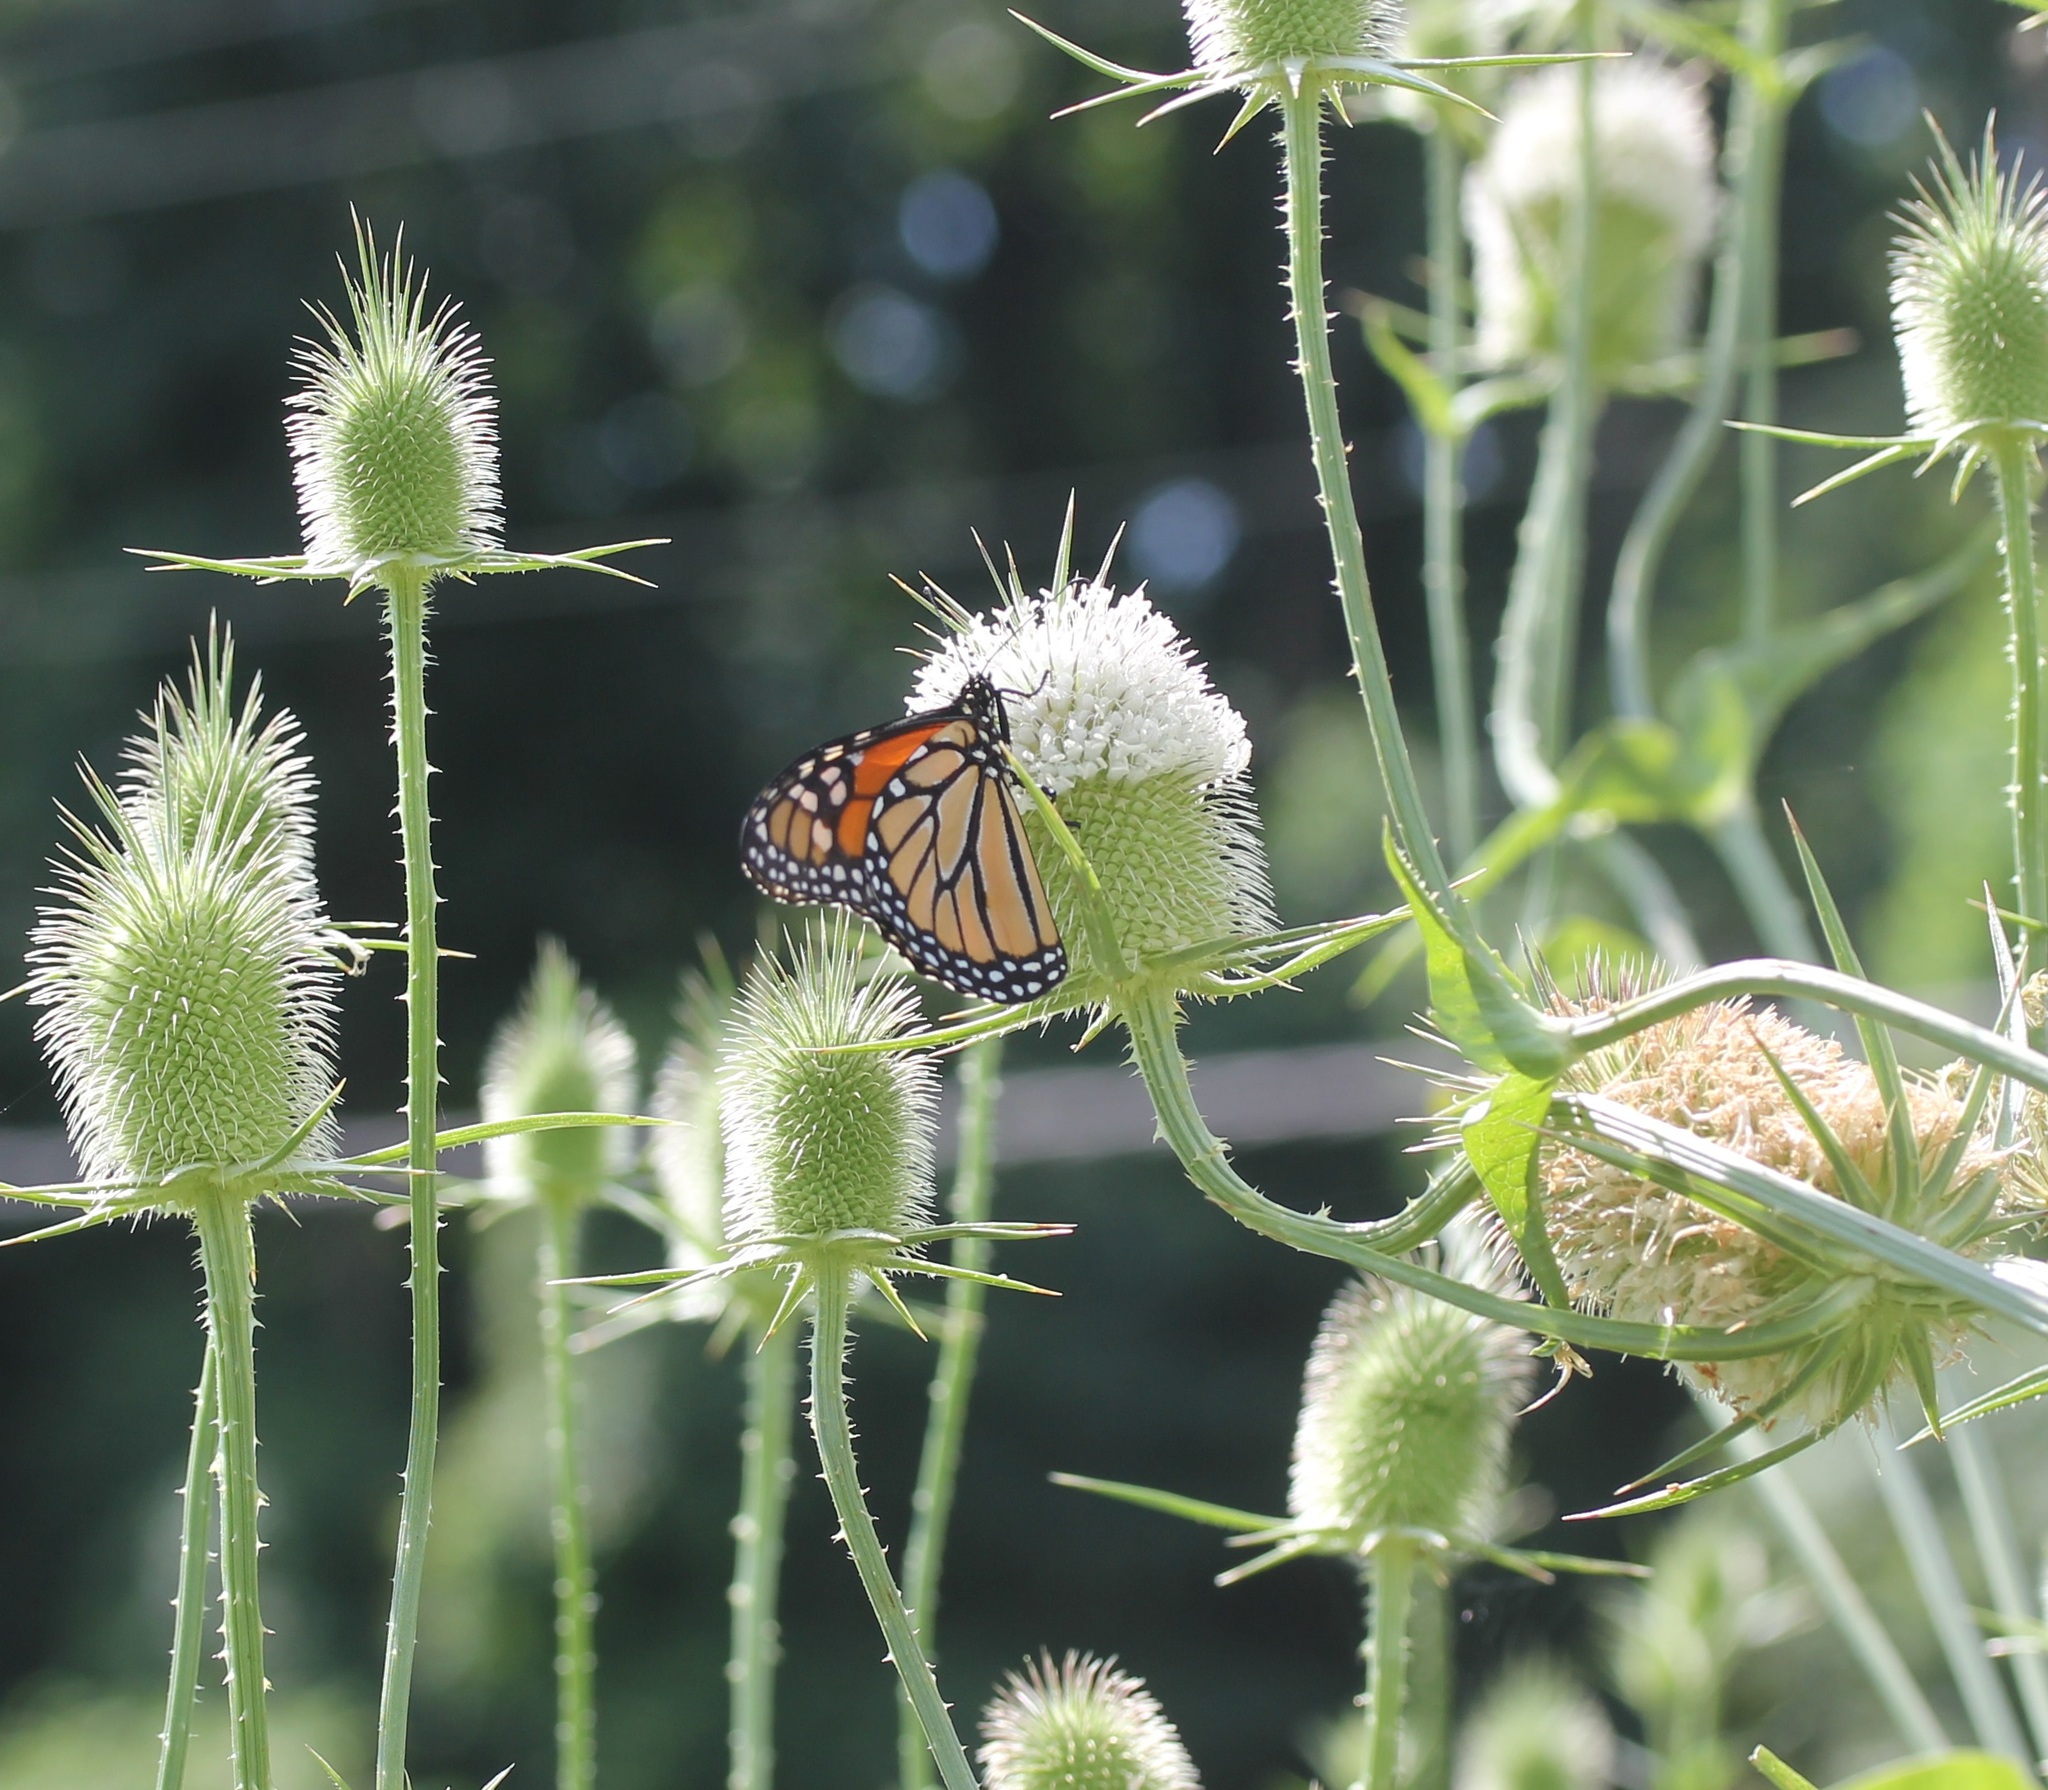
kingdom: Animalia
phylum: Arthropoda
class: Insecta
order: Lepidoptera
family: Nymphalidae
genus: Danaus
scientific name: Danaus plexippus
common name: Monarch
